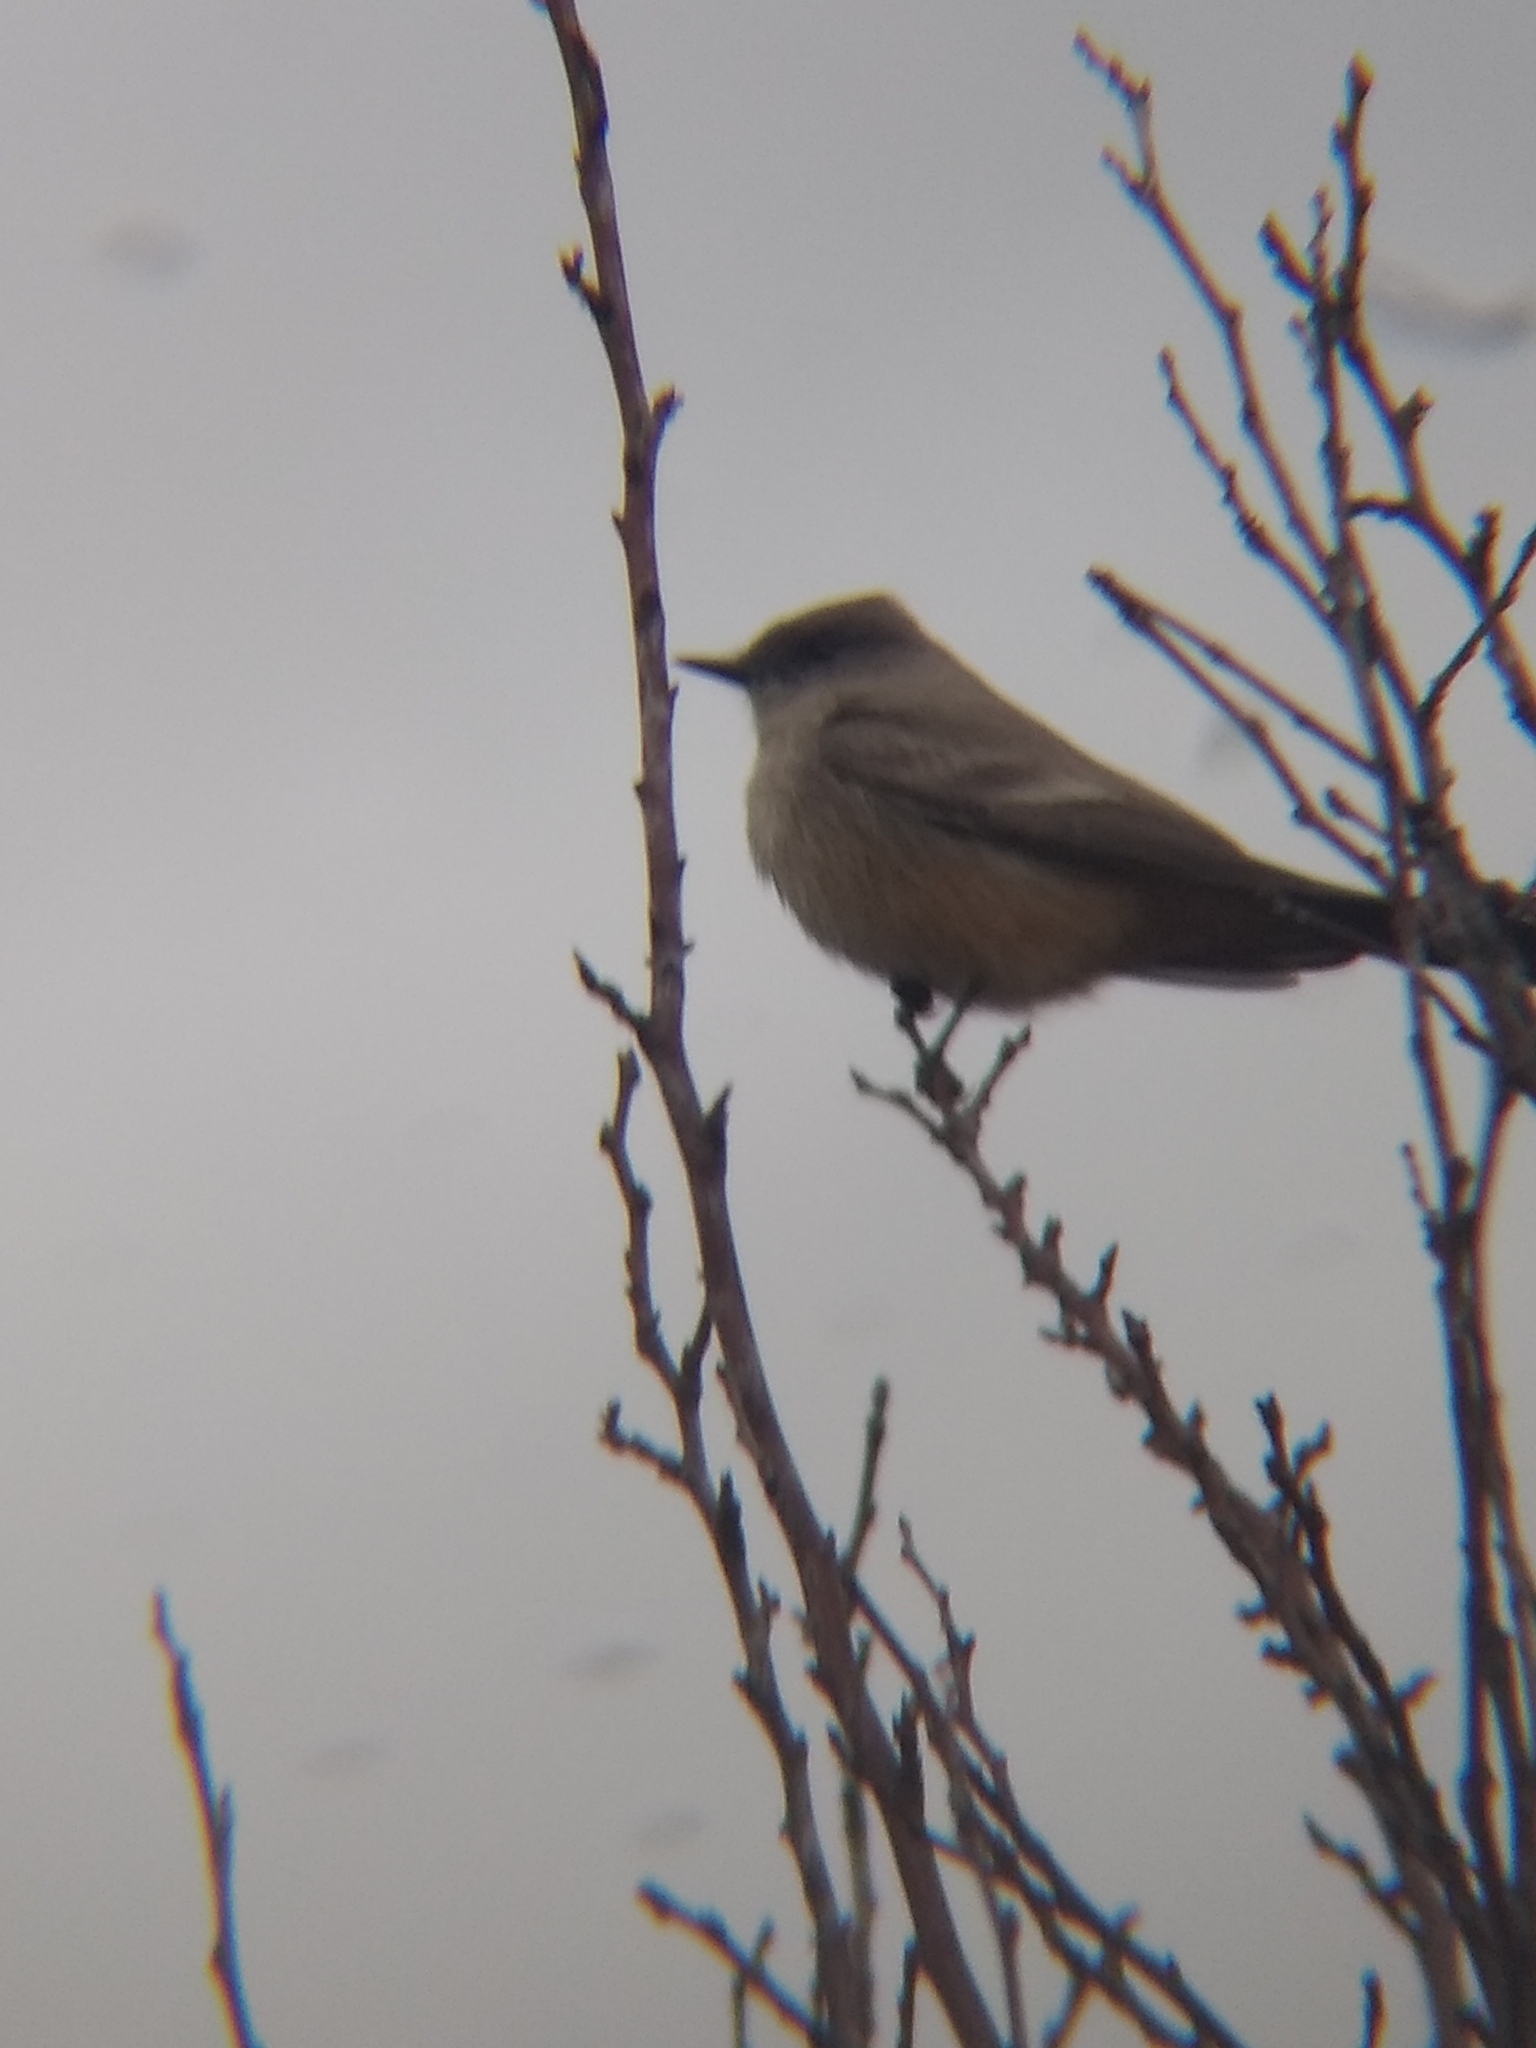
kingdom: Animalia
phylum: Chordata
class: Aves
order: Passeriformes
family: Tyrannidae
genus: Sayornis
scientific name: Sayornis saya
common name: Say's phoebe
